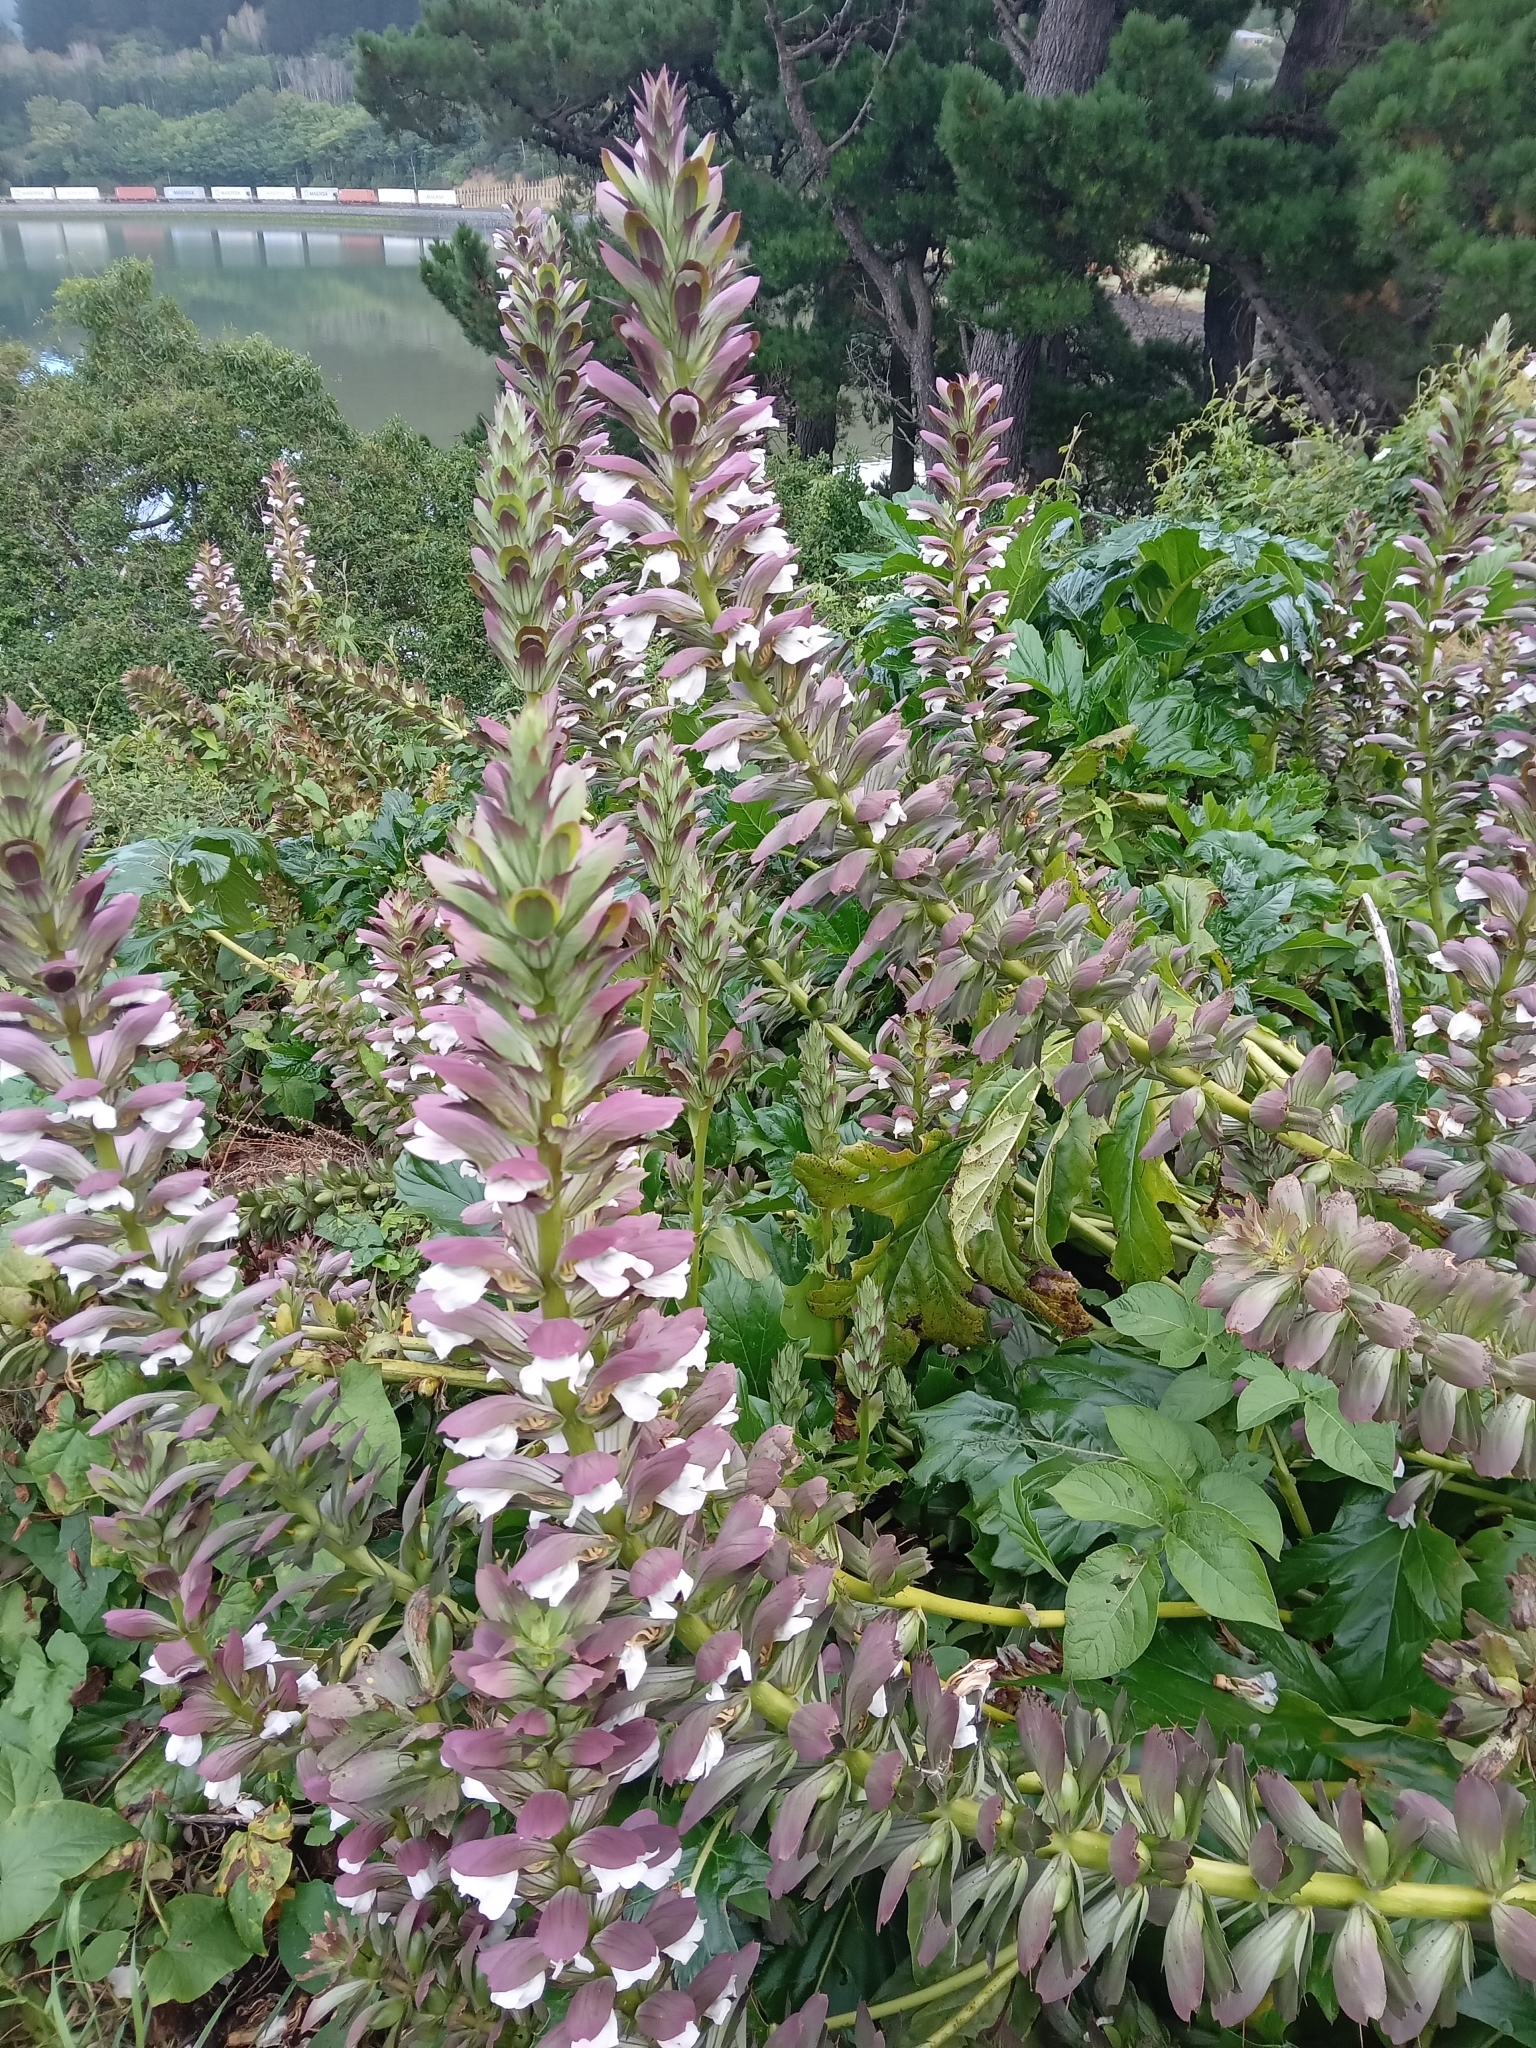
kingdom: Plantae
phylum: Tracheophyta
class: Magnoliopsida
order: Lamiales
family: Acanthaceae
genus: Acanthus
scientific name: Acanthus mollis
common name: Bear's-breech
